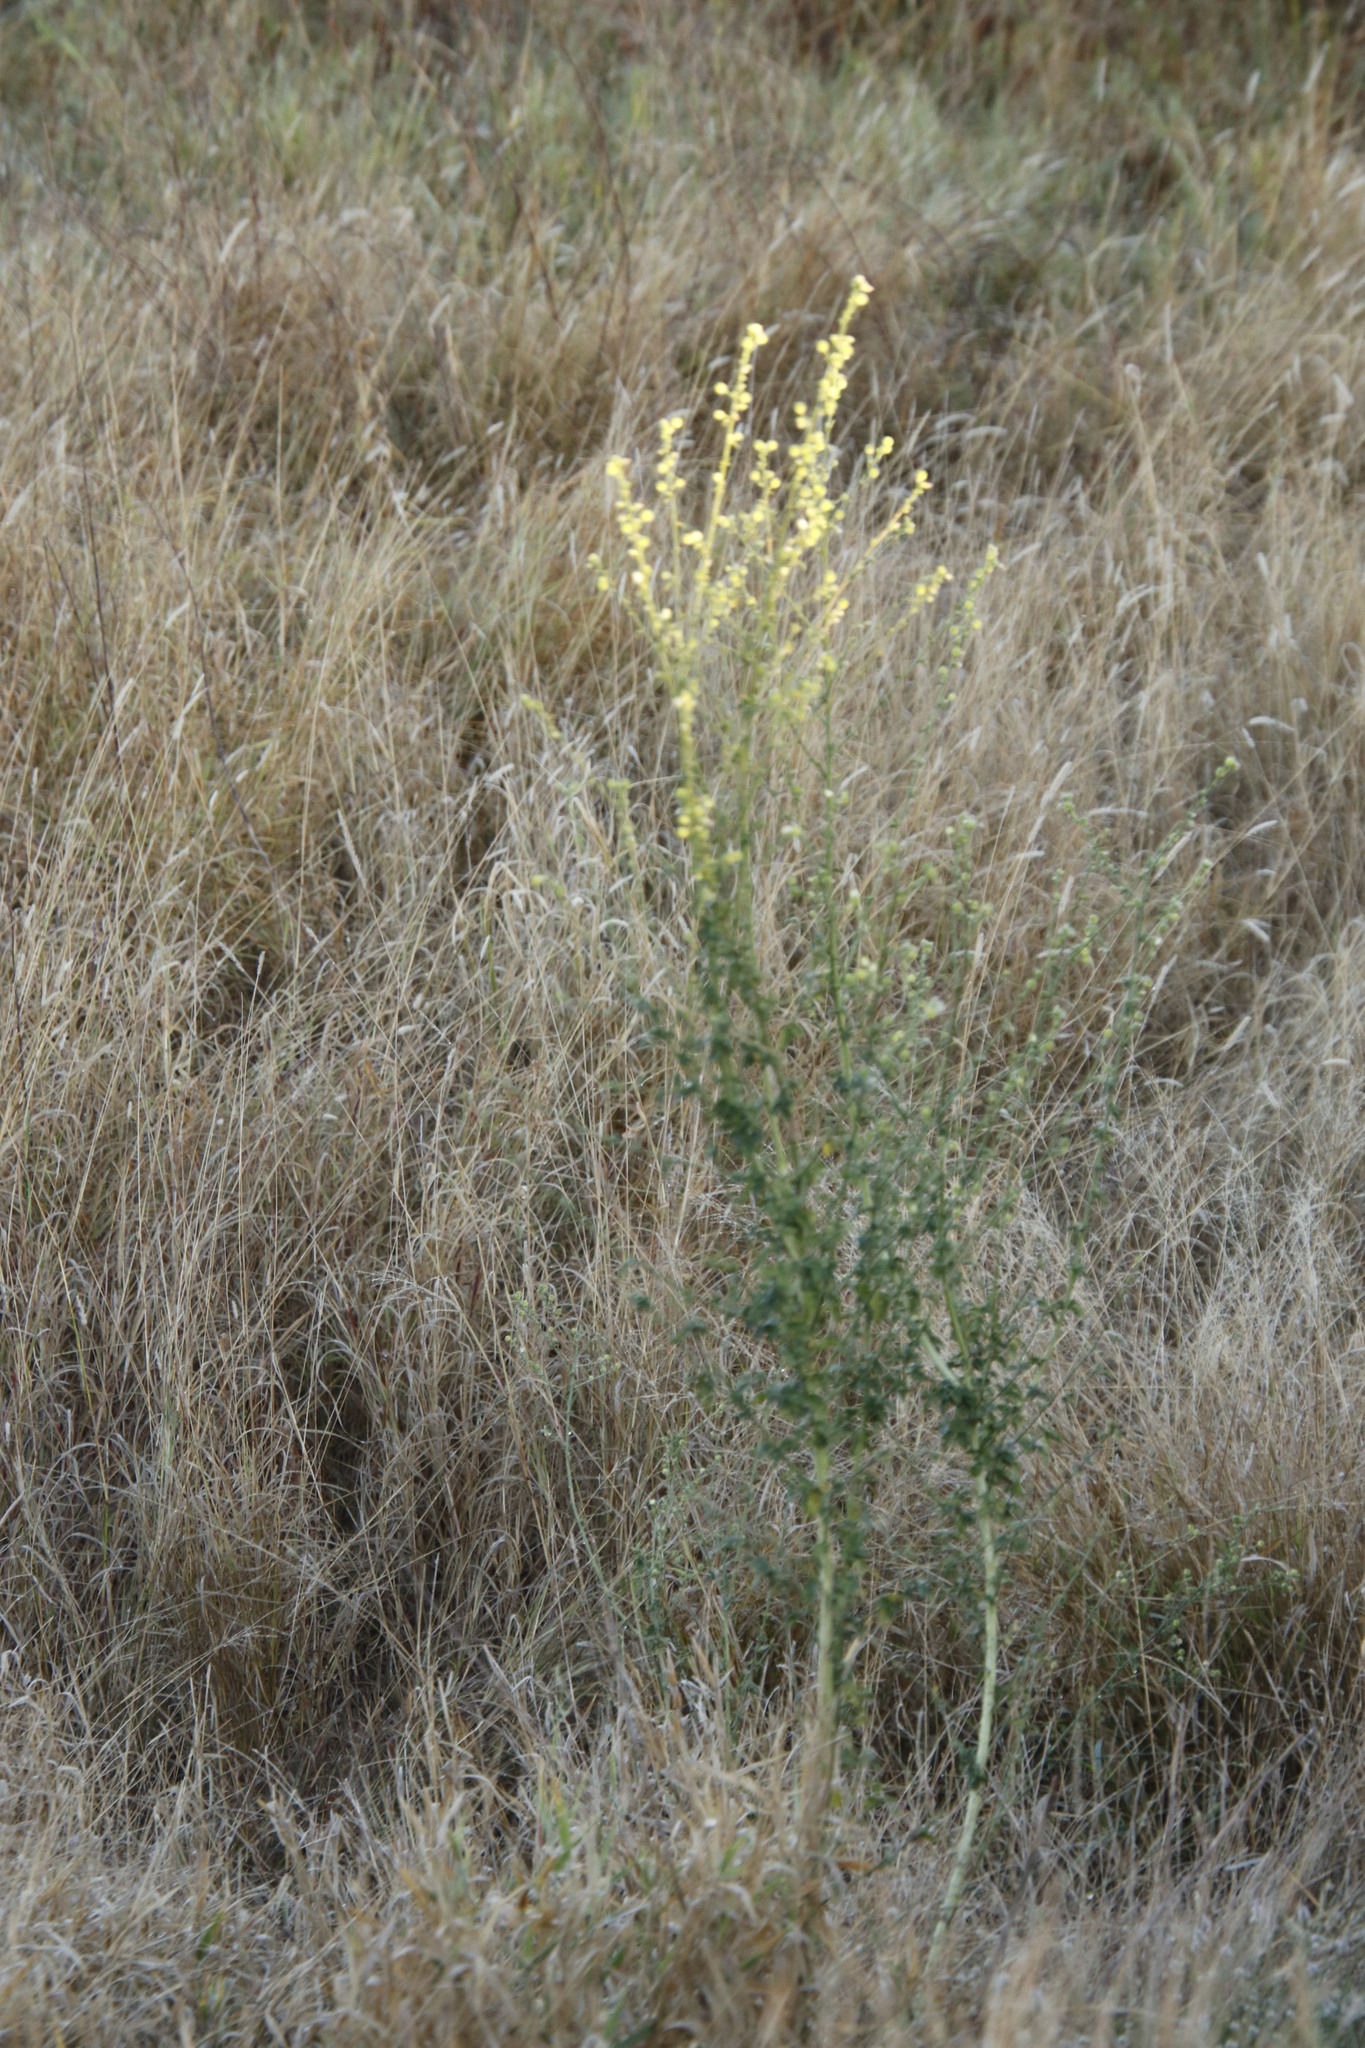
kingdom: Plantae
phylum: Tracheophyta
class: Magnoliopsida
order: Malvales
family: Malvaceae
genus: Hibiscus
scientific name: Hibiscus micranthus
